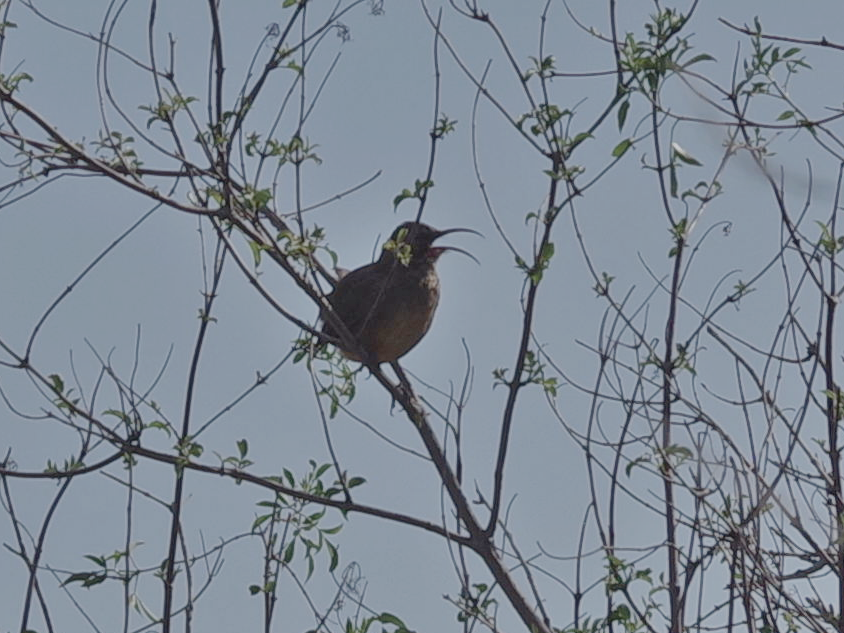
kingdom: Animalia
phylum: Chordata
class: Aves
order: Passeriformes
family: Mimidae
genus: Toxostoma
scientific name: Toxostoma redivivum
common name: California thrasher
